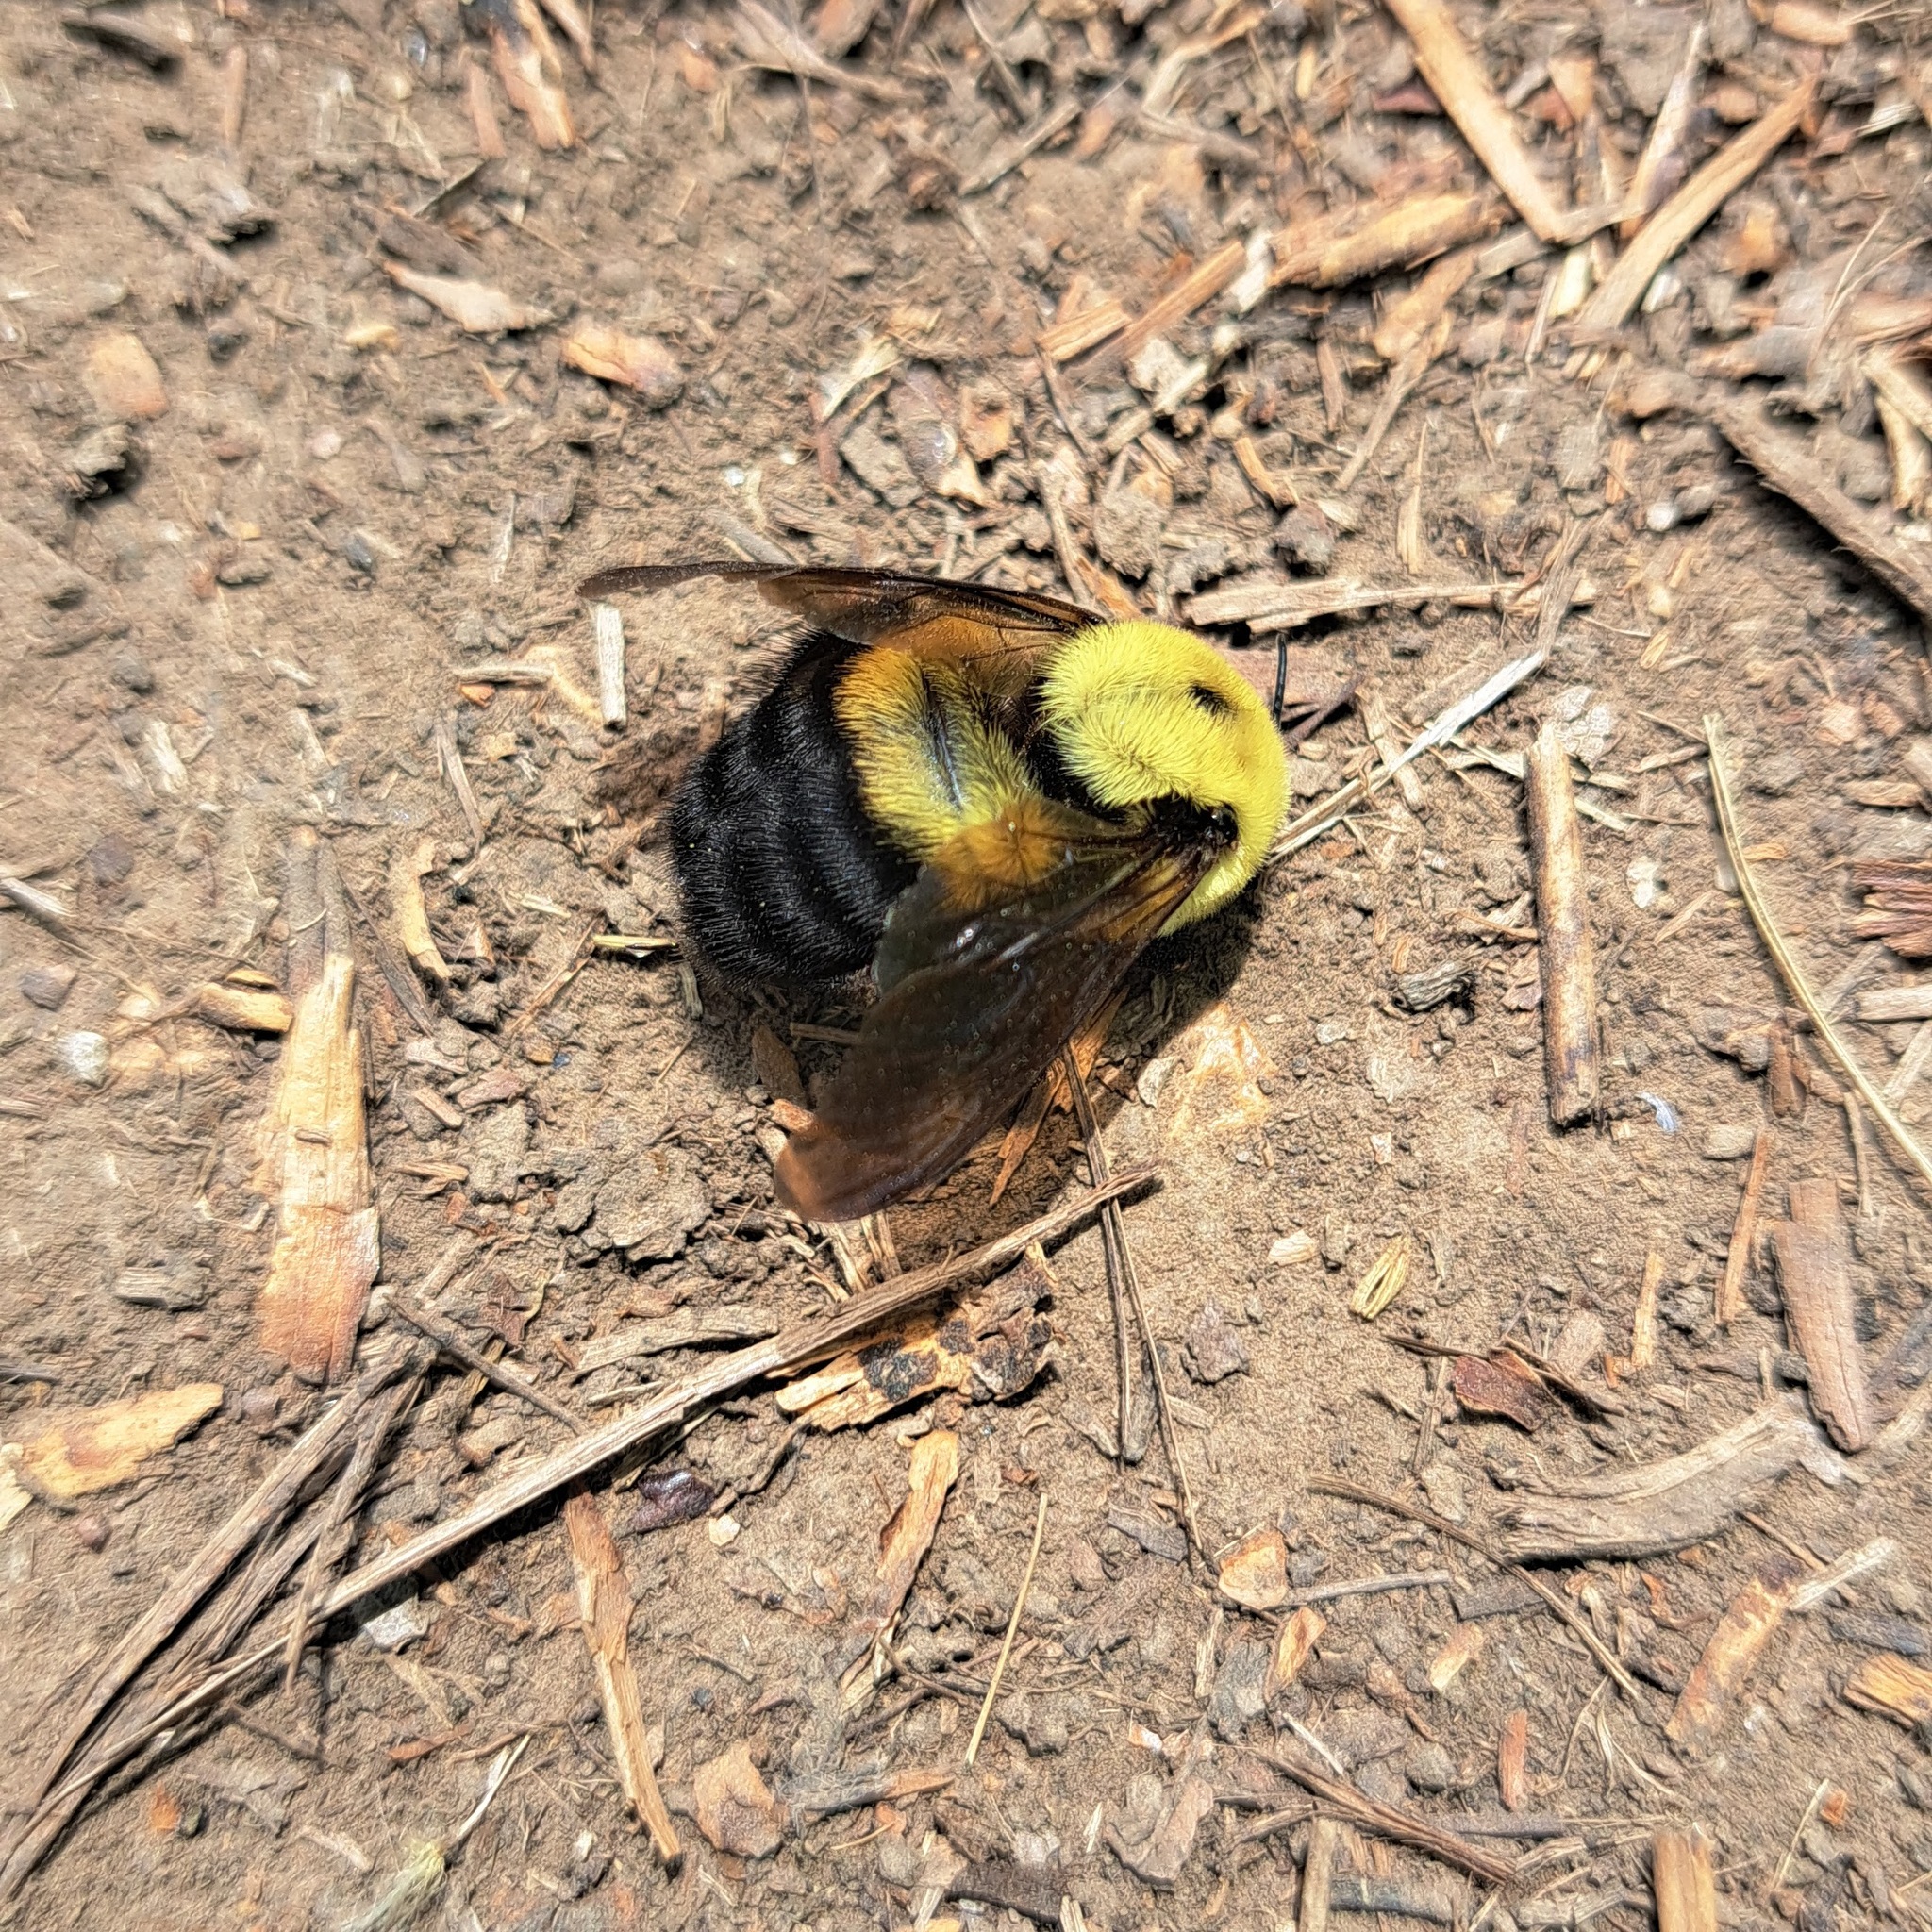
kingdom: Animalia
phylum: Arthropoda
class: Insecta
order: Hymenoptera
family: Apidae
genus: Bombus
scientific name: Bombus griseocollis
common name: Brown-belted bumble bee
